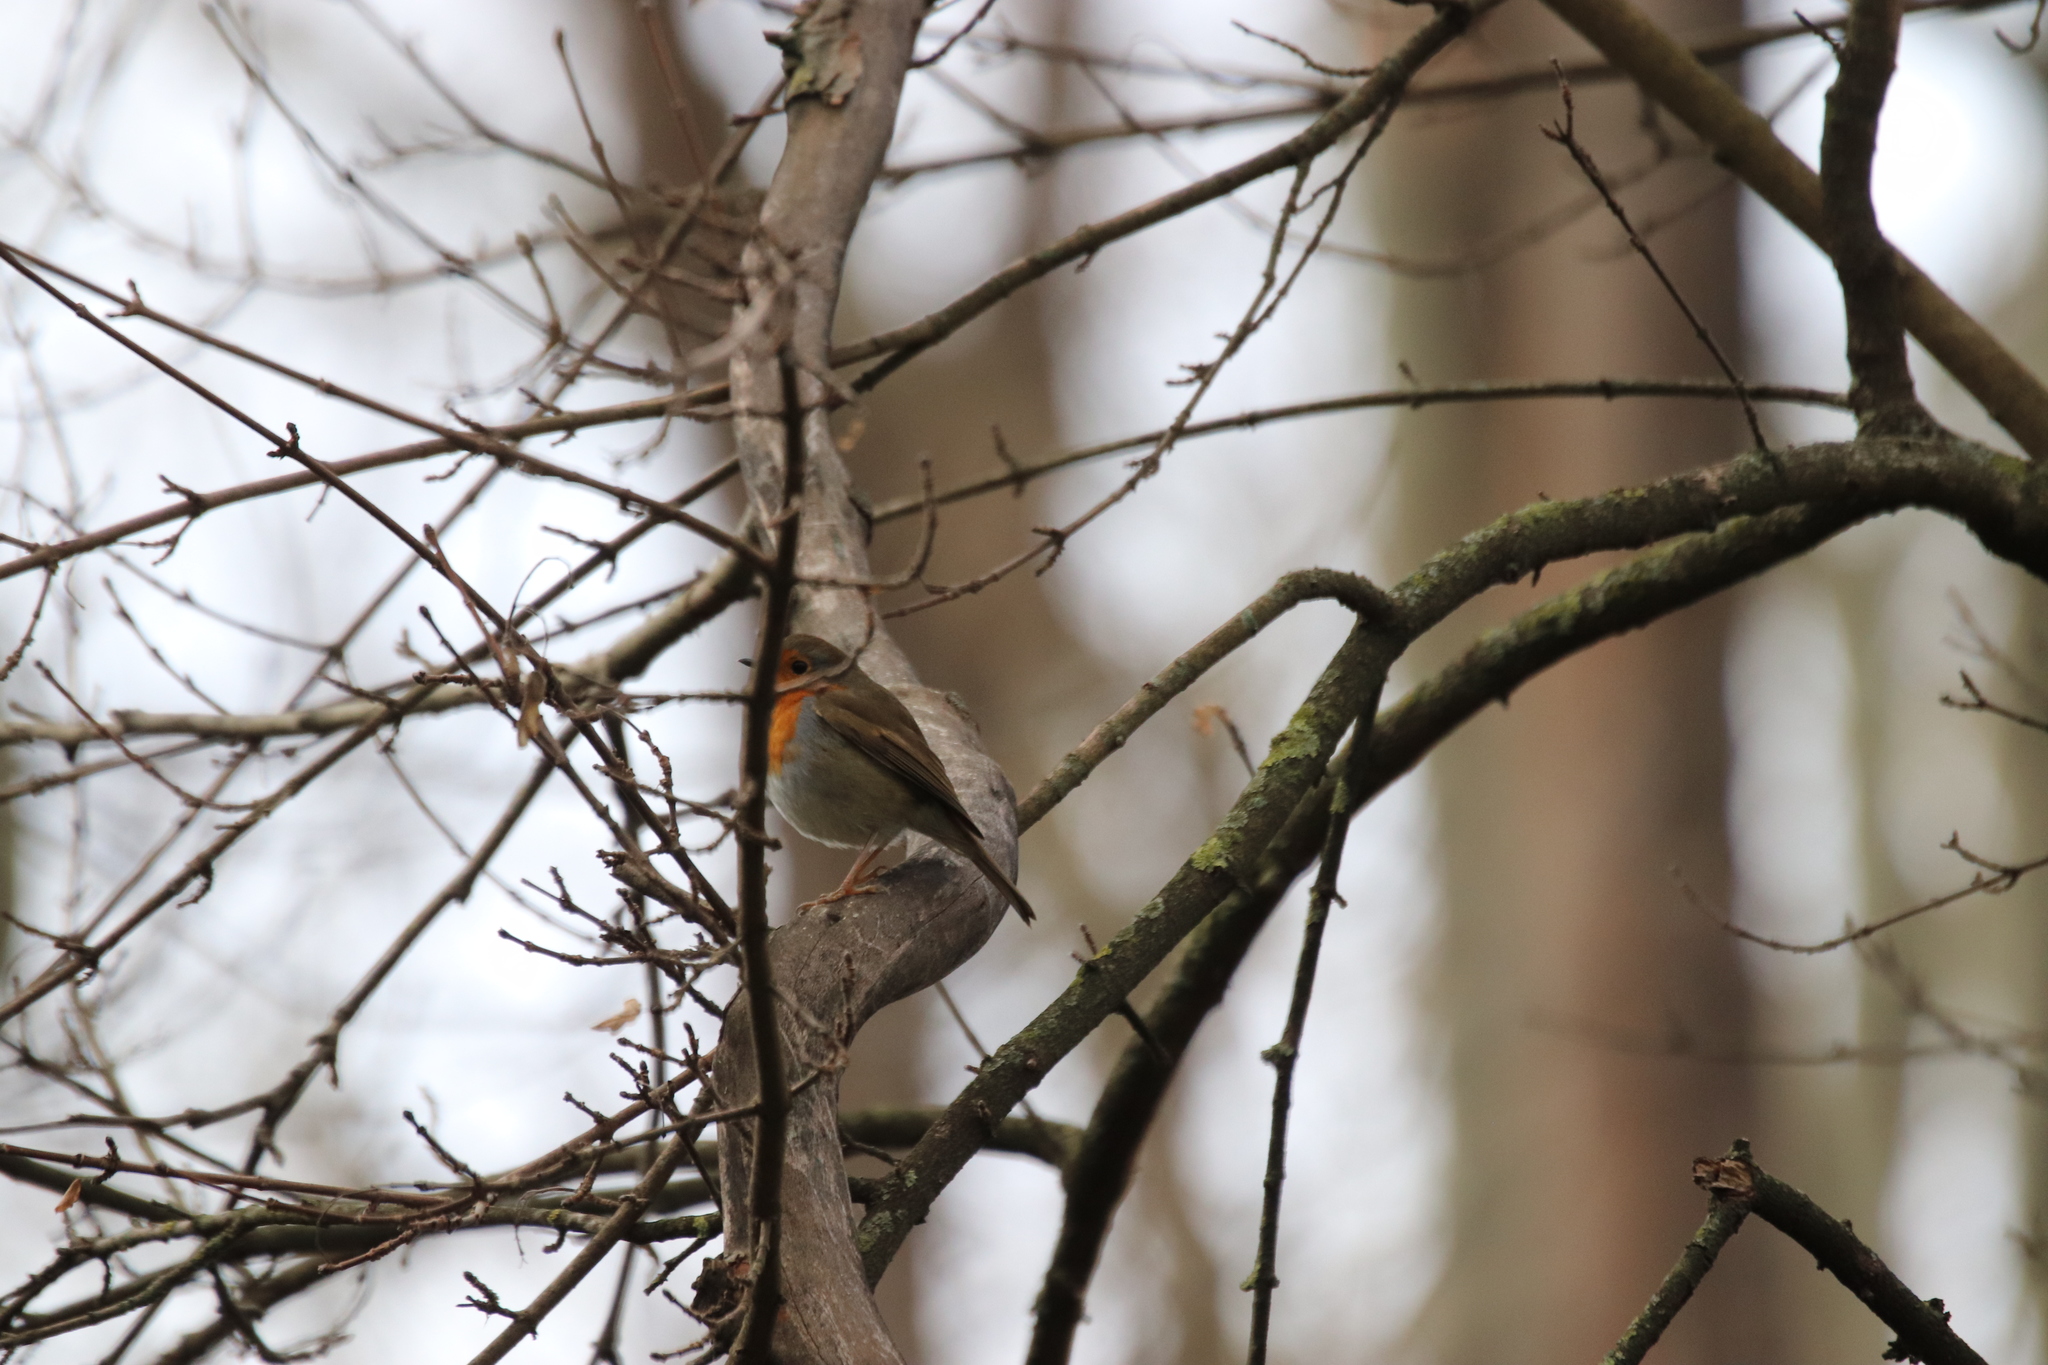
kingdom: Animalia
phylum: Chordata
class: Aves
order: Passeriformes
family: Muscicapidae
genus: Erithacus
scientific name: Erithacus rubecula
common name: European robin
